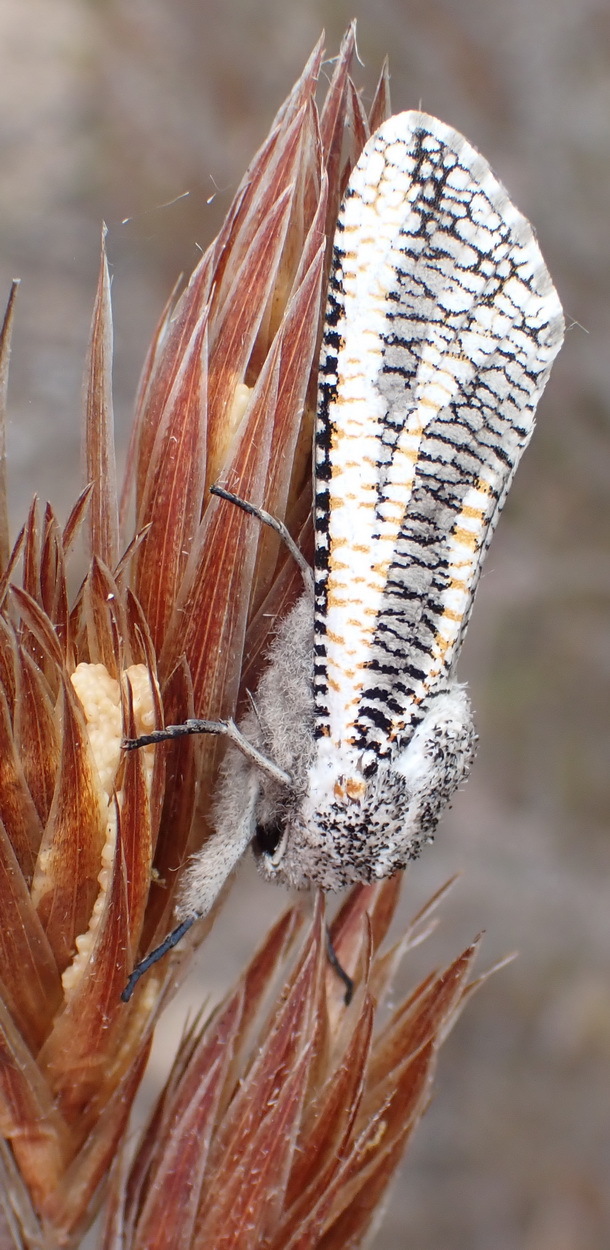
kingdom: Animalia
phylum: Arthropoda
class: Insecta
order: Lepidoptera
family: Cossidae
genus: Azygophleps
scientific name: Azygophleps inclusa
